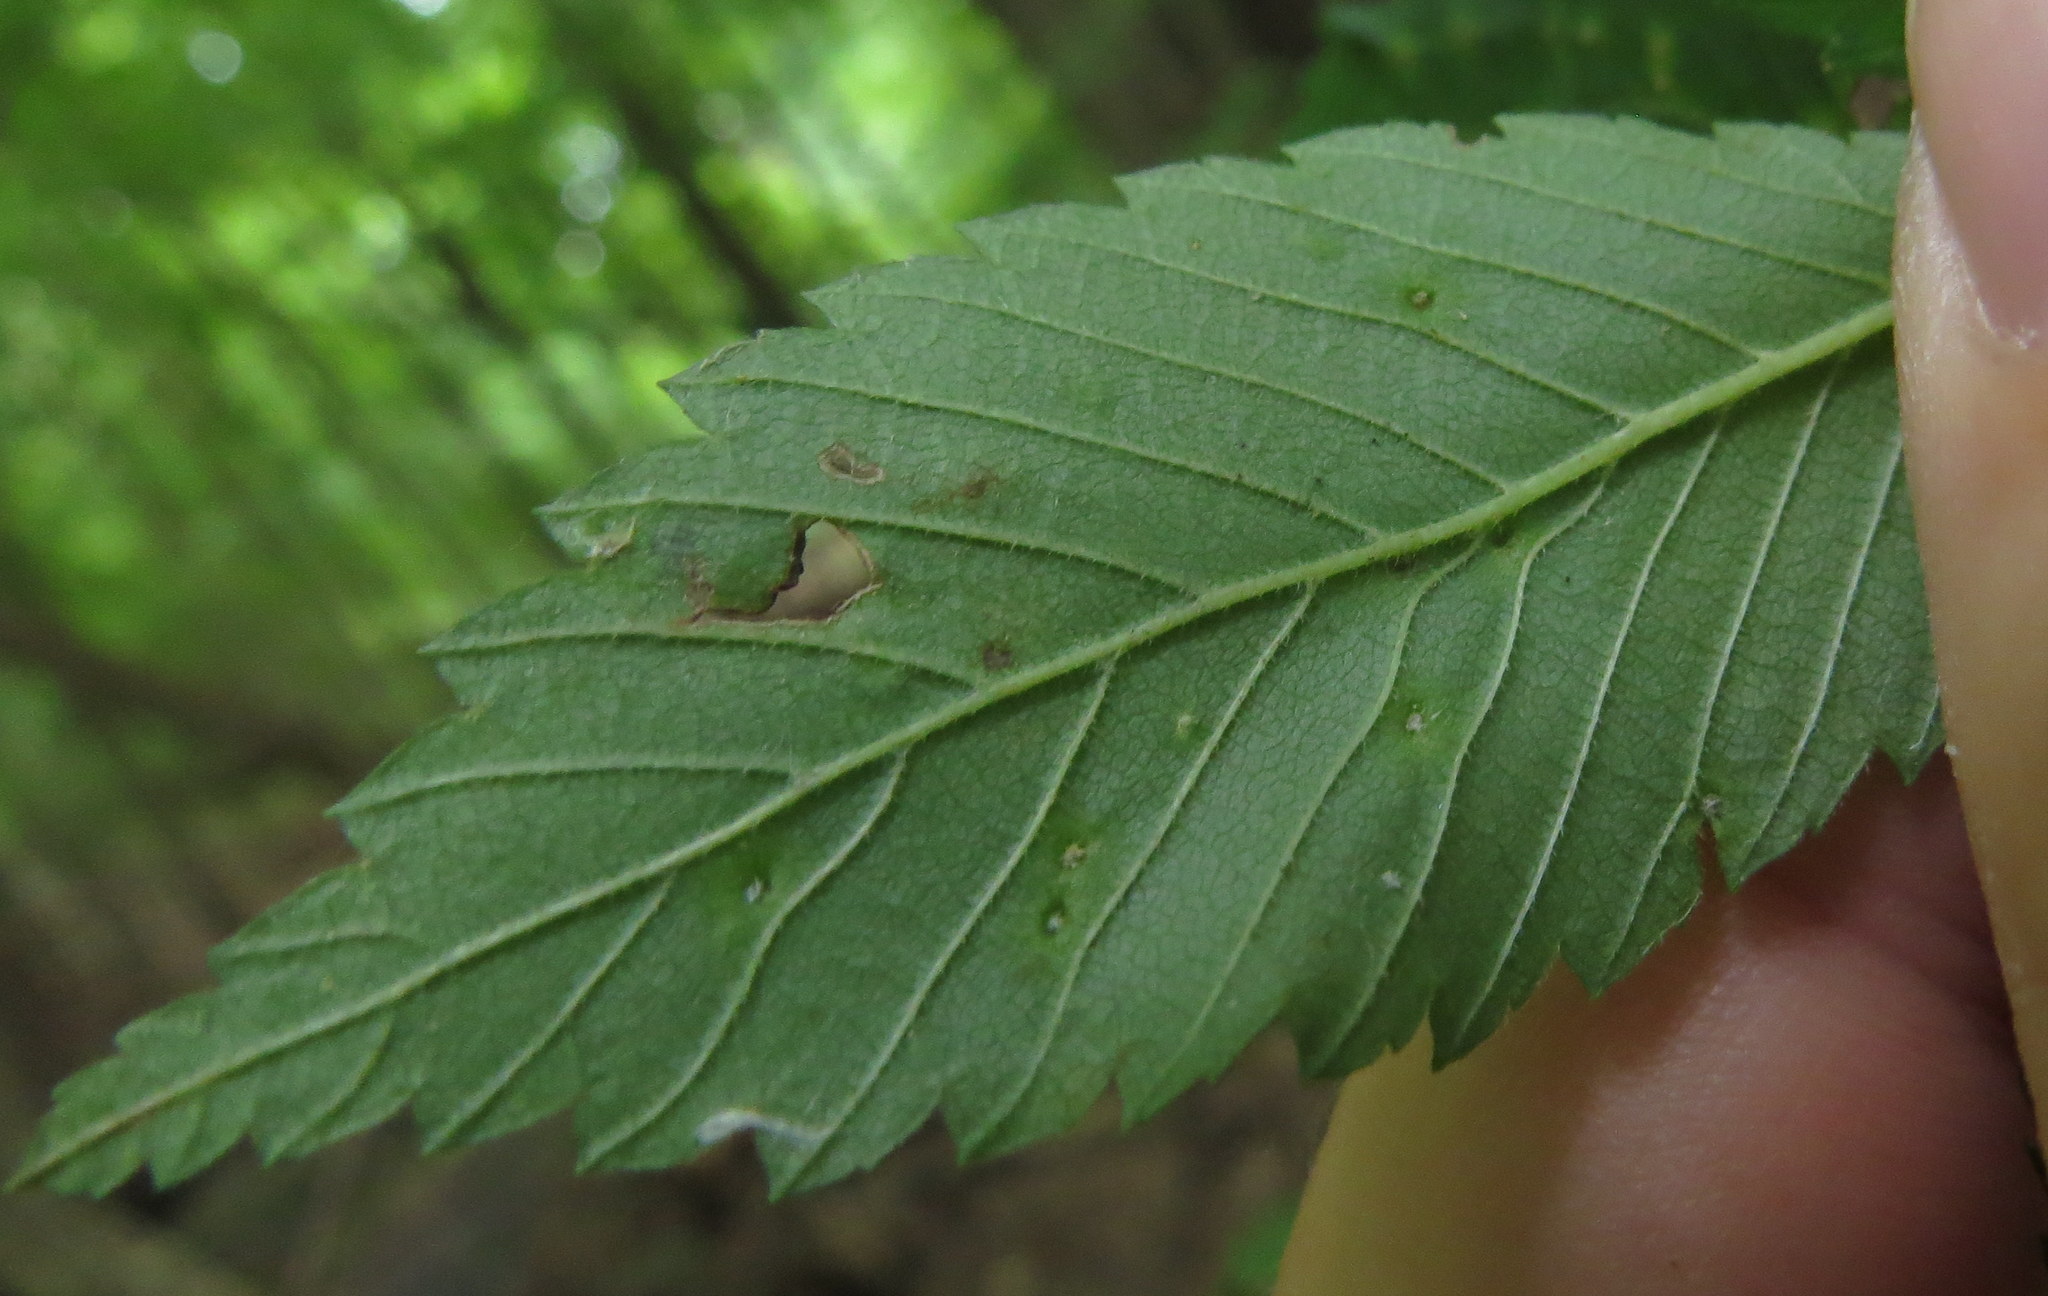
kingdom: Animalia
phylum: Arthropoda
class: Arachnida
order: Trombidiformes
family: Eriophyidae
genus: Aceria
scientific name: Aceria
